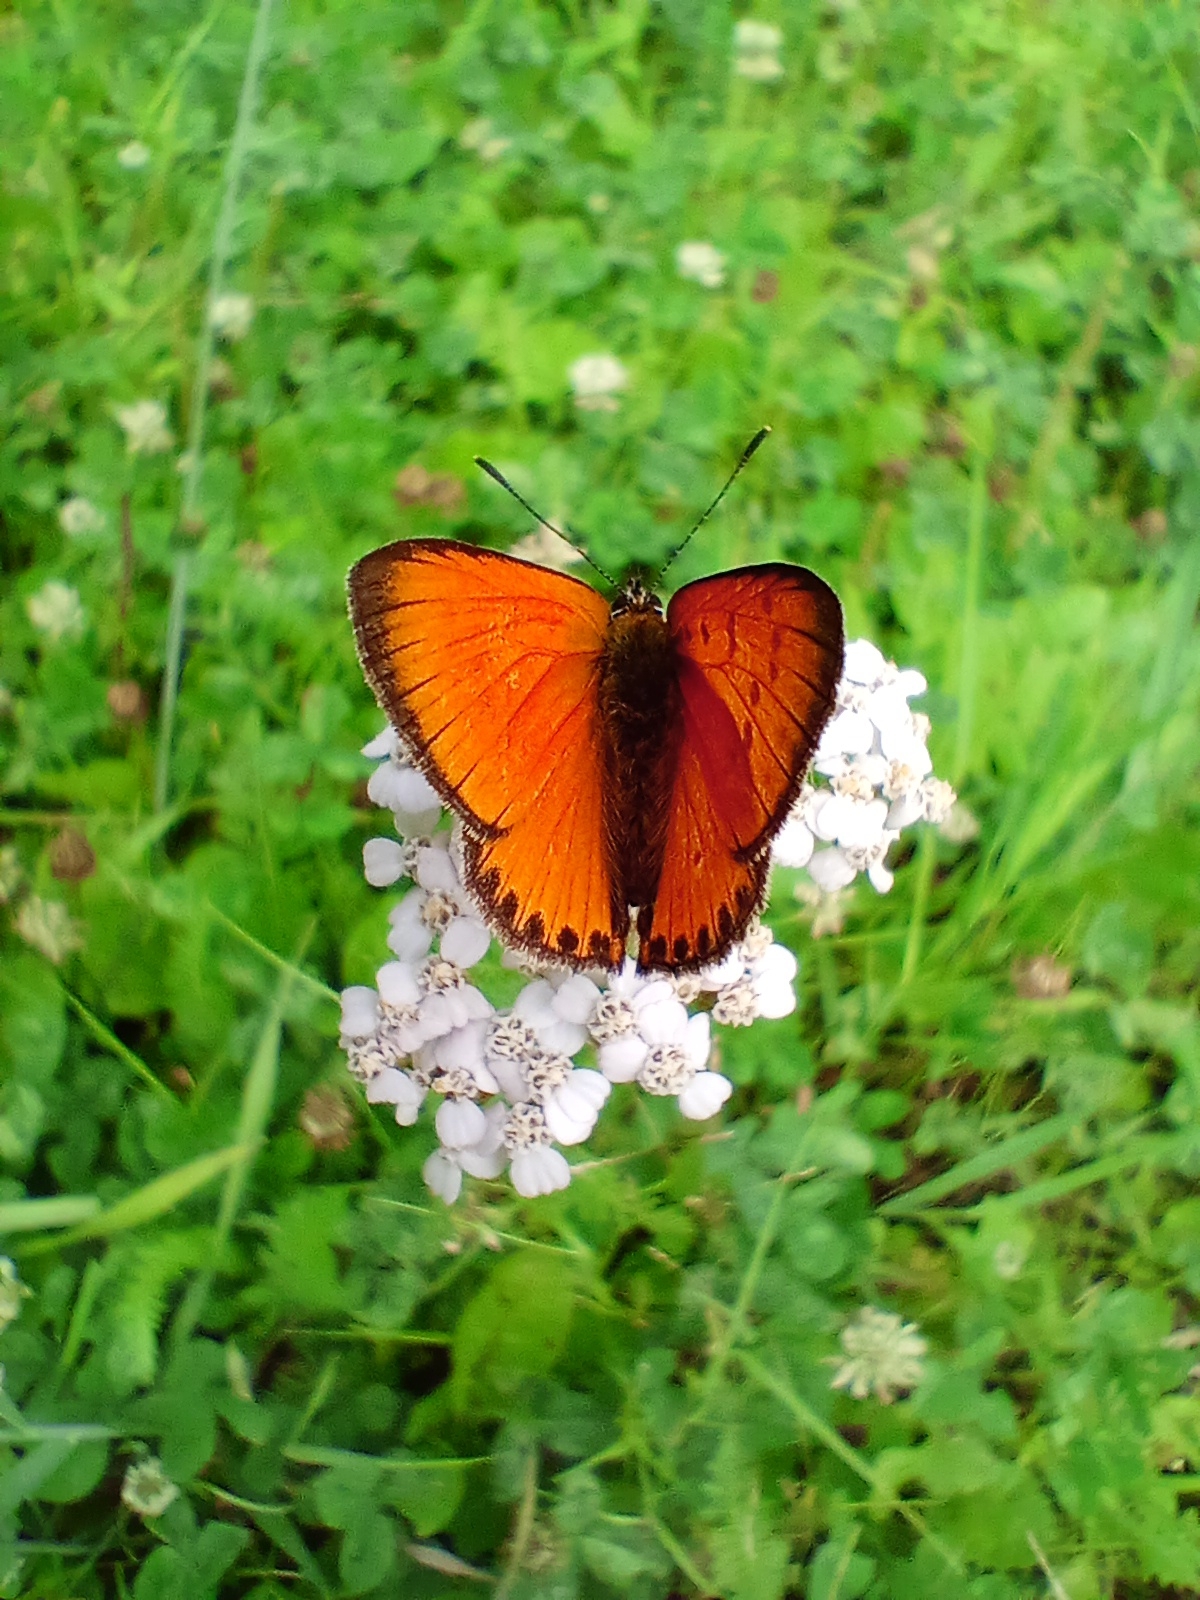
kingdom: Animalia
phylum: Arthropoda
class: Insecta
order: Lepidoptera
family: Lycaenidae
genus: Lycaena
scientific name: Lycaena virgaureae
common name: Scarce copper
